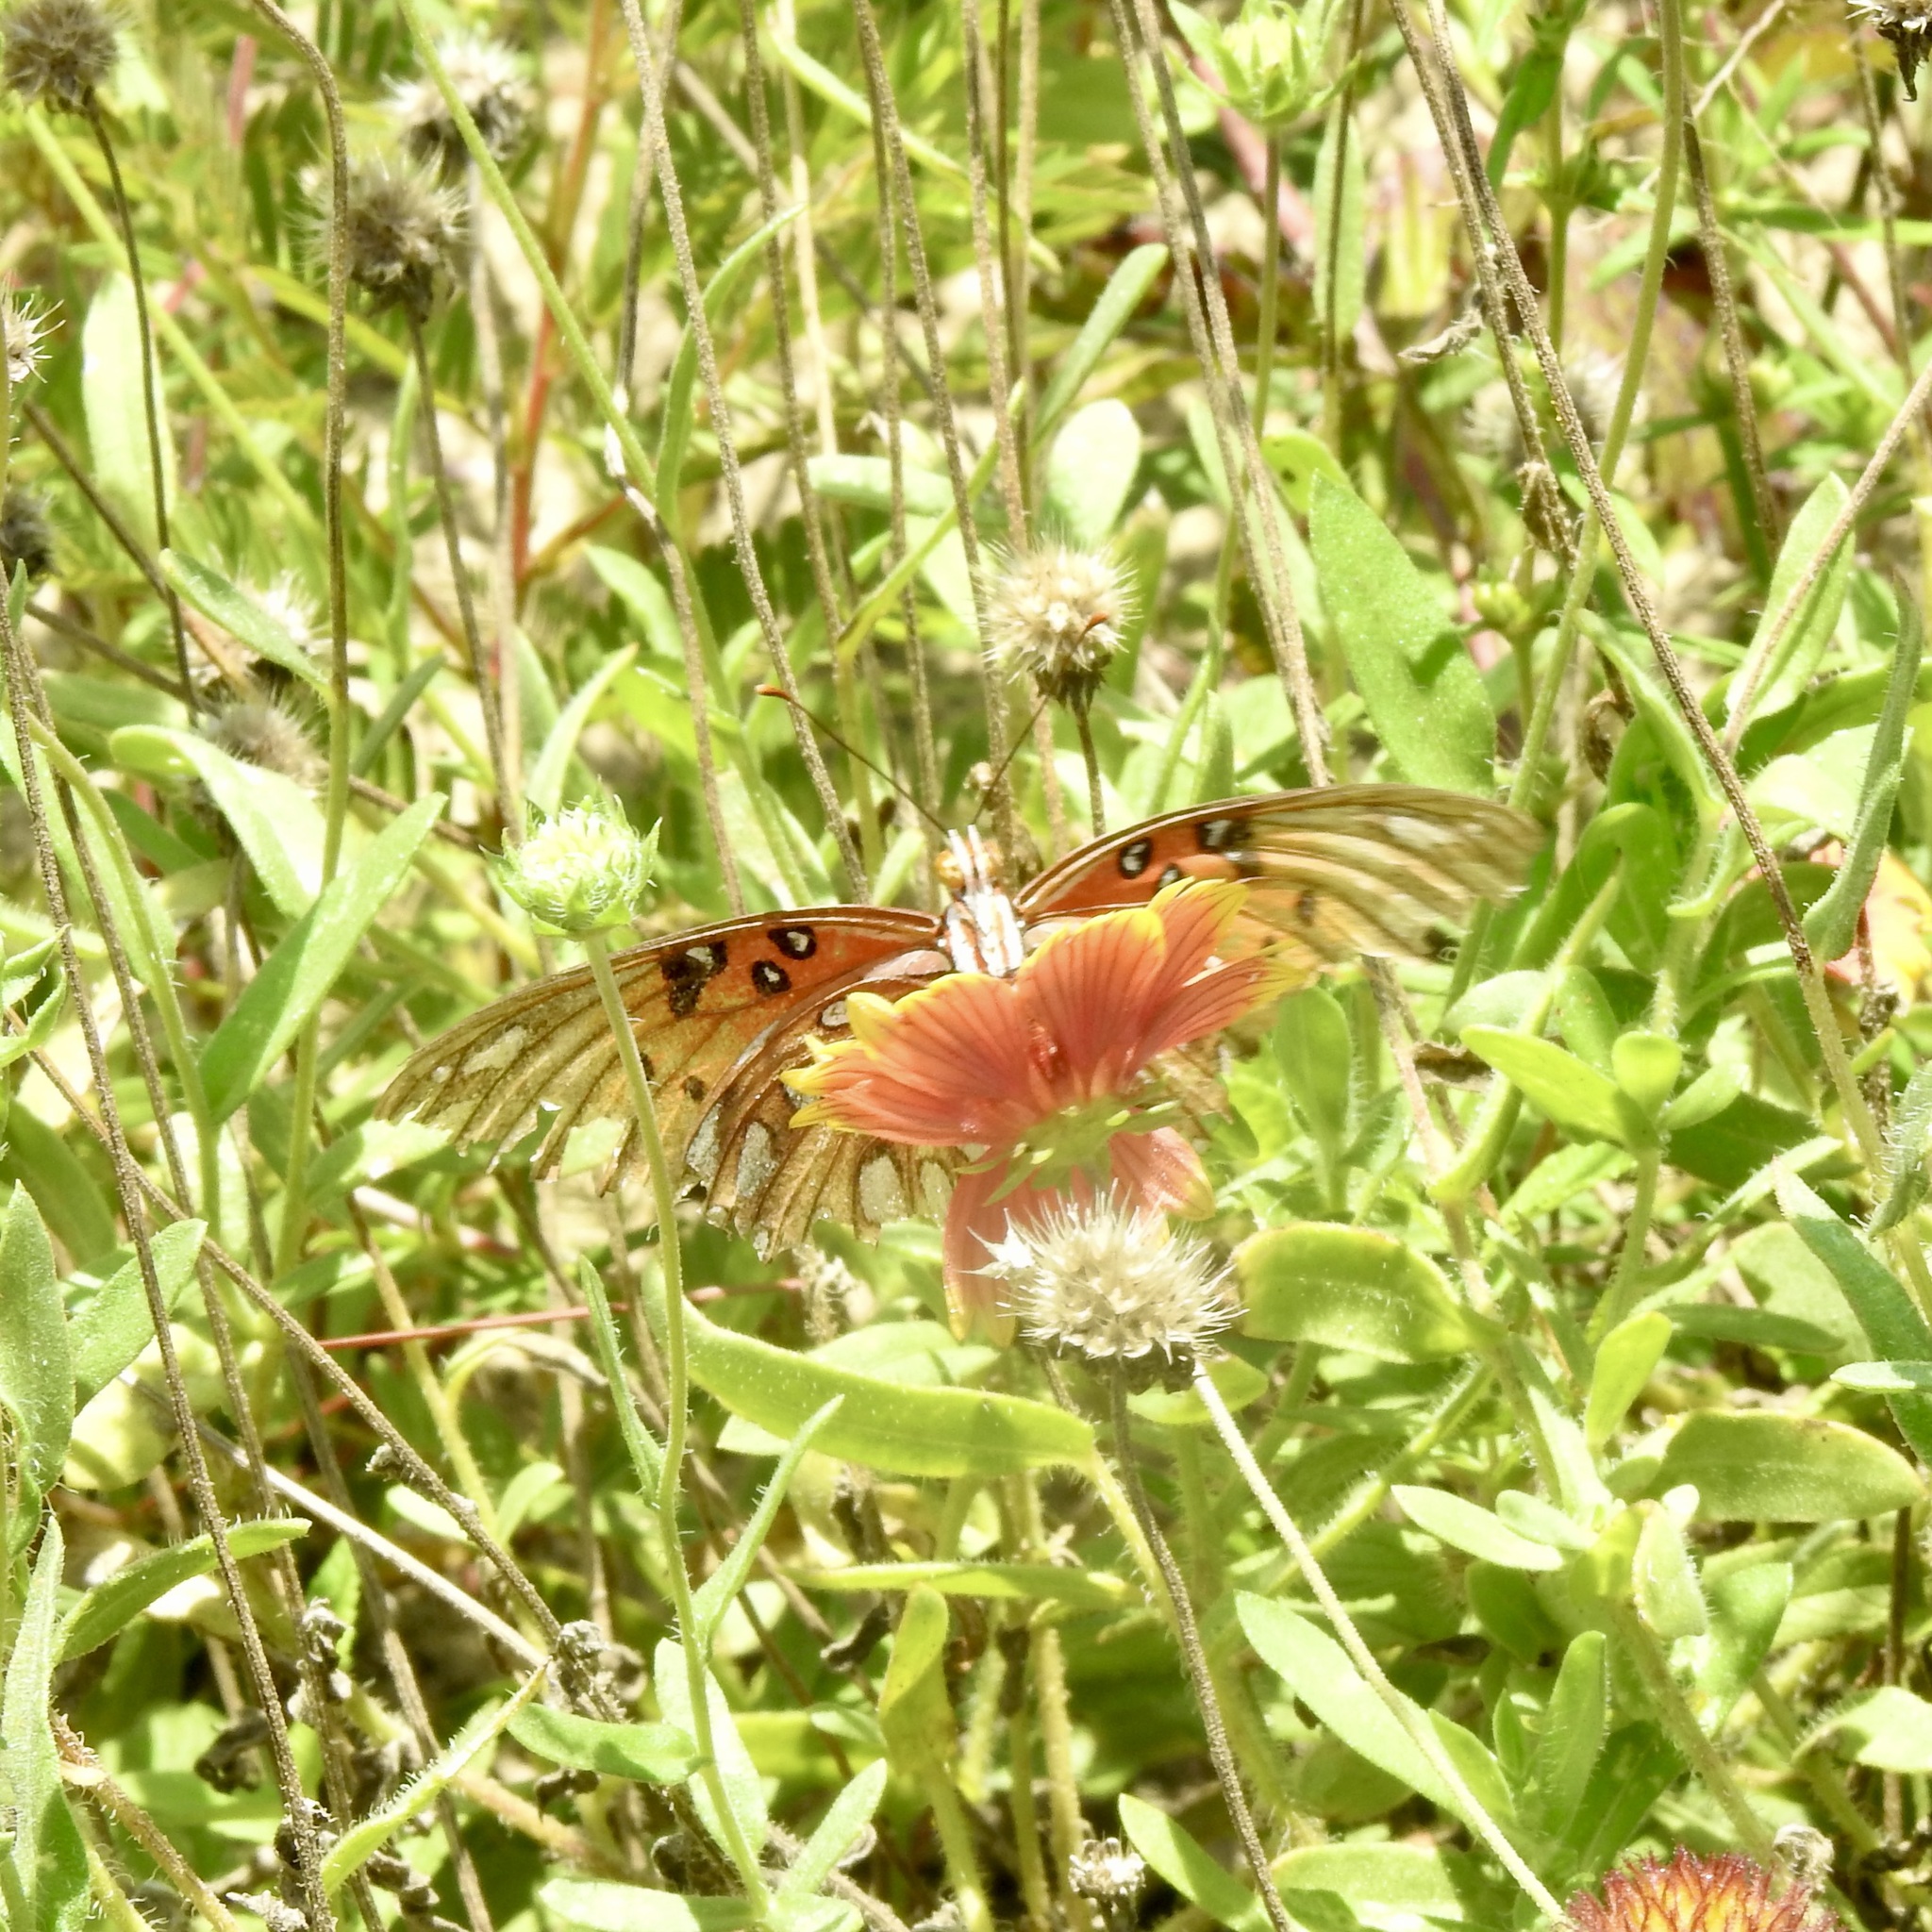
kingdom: Animalia
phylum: Arthropoda
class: Insecta
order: Lepidoptera
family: Nymphalidae
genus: Dione
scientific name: Dione vanillae
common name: Gulf fritillary
